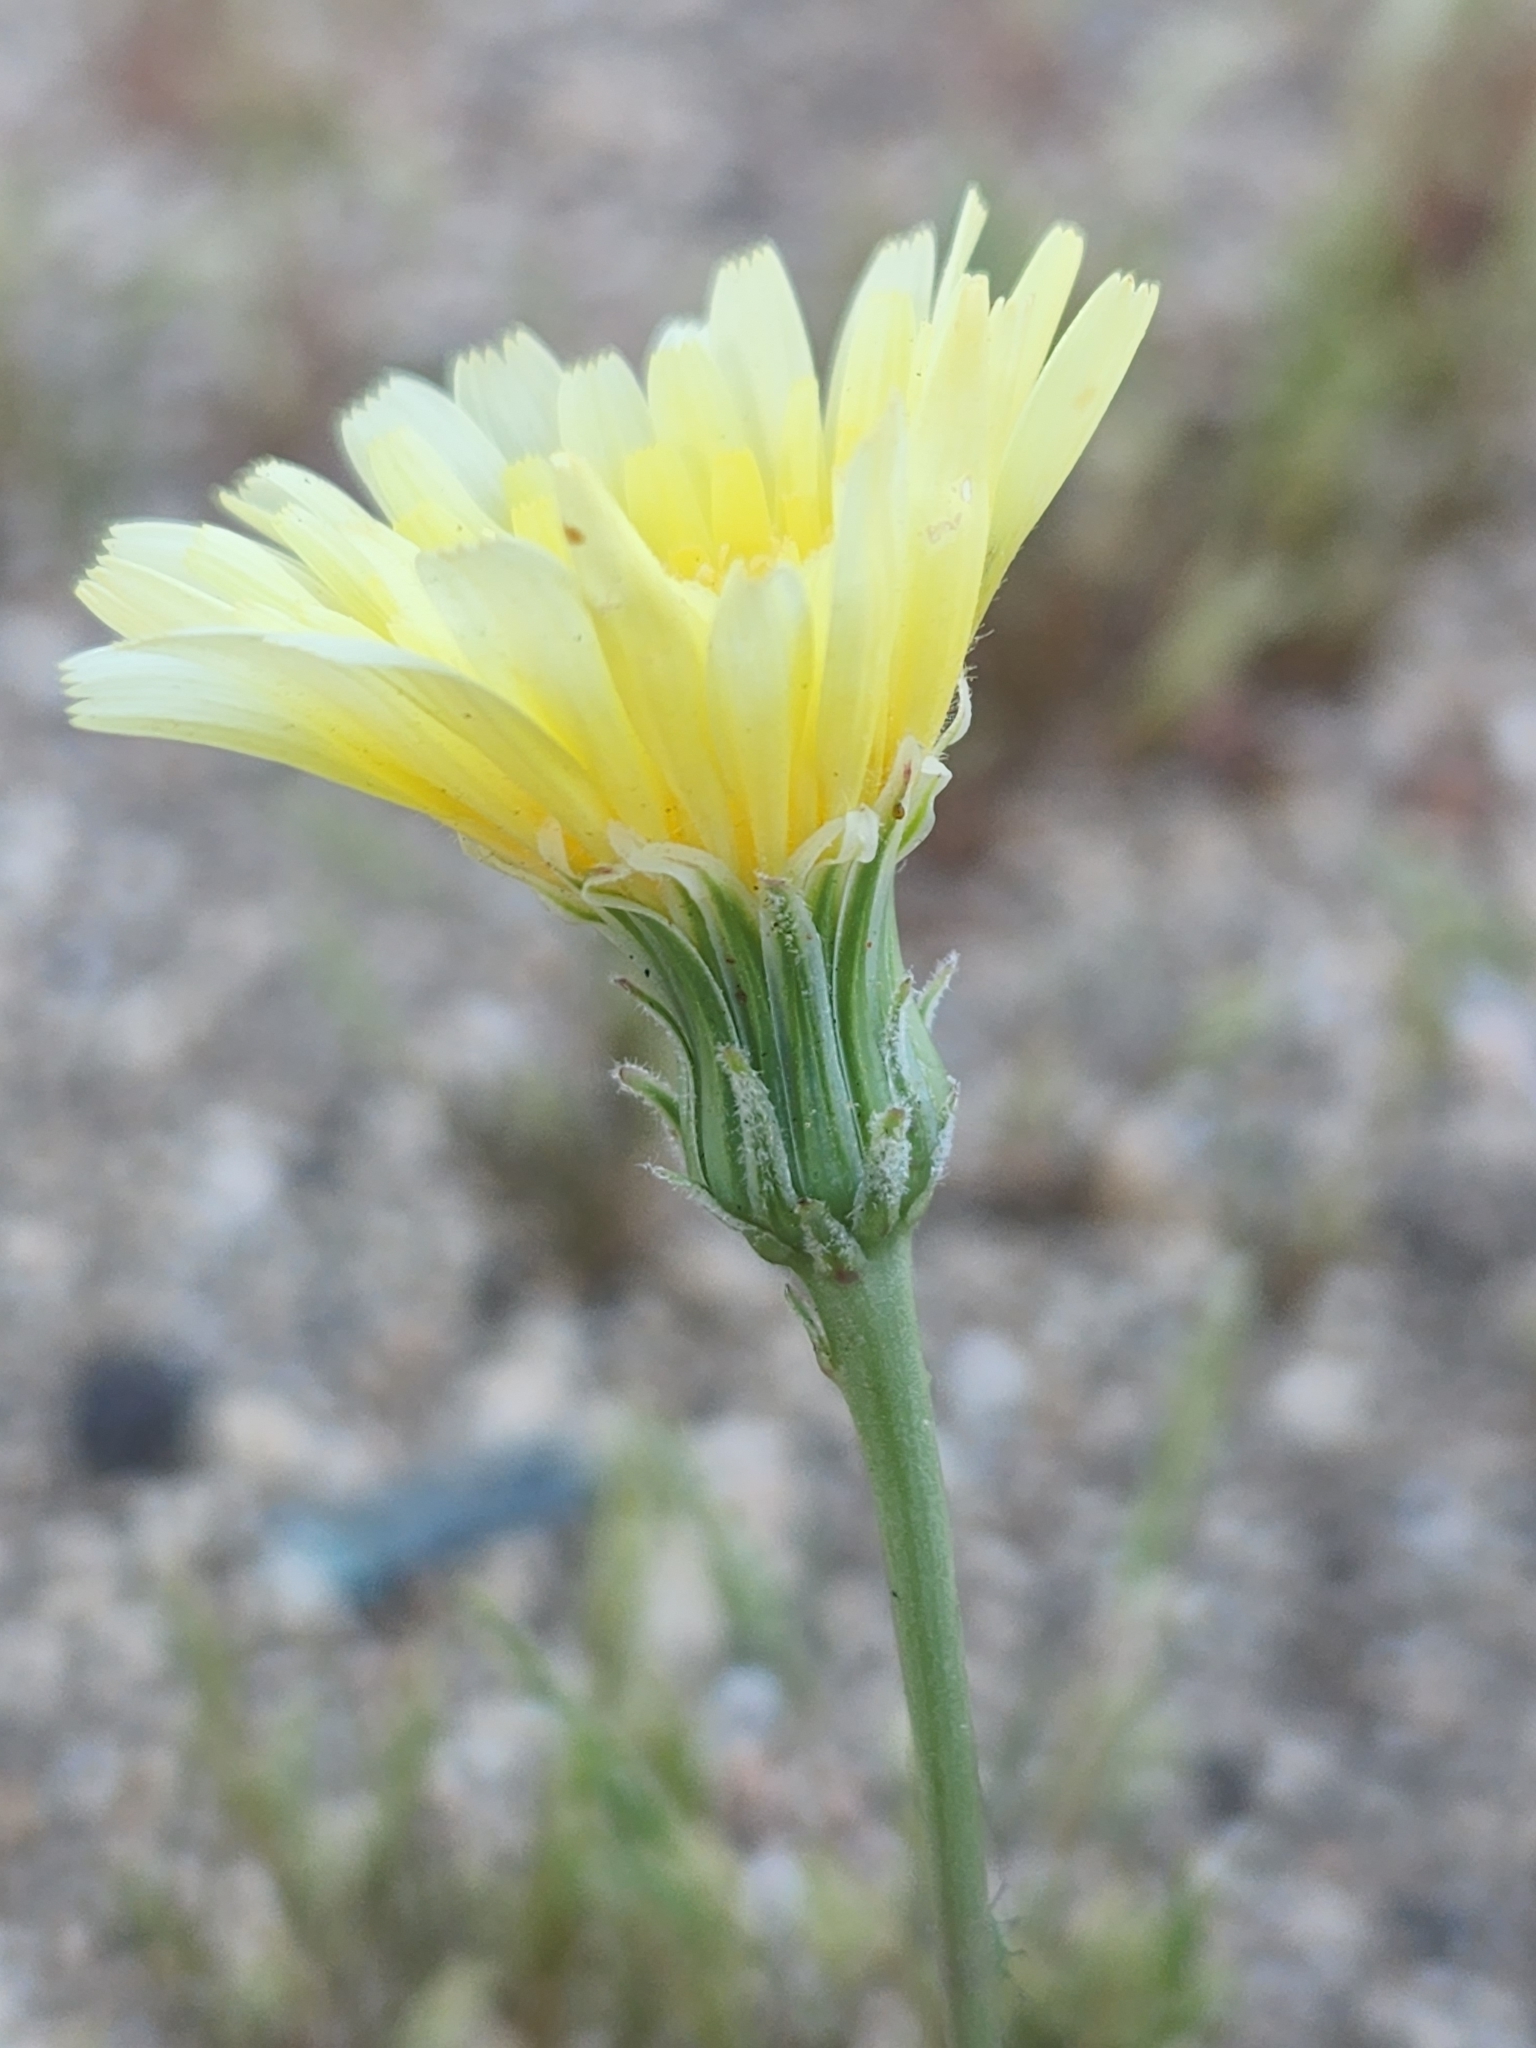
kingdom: Plantae
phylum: Tracheophyta
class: Magnoliopsida
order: Asterales
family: Asteraceae
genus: Malacothrix
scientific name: Malacothrix glabrata
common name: Smooth desert-dandelion
